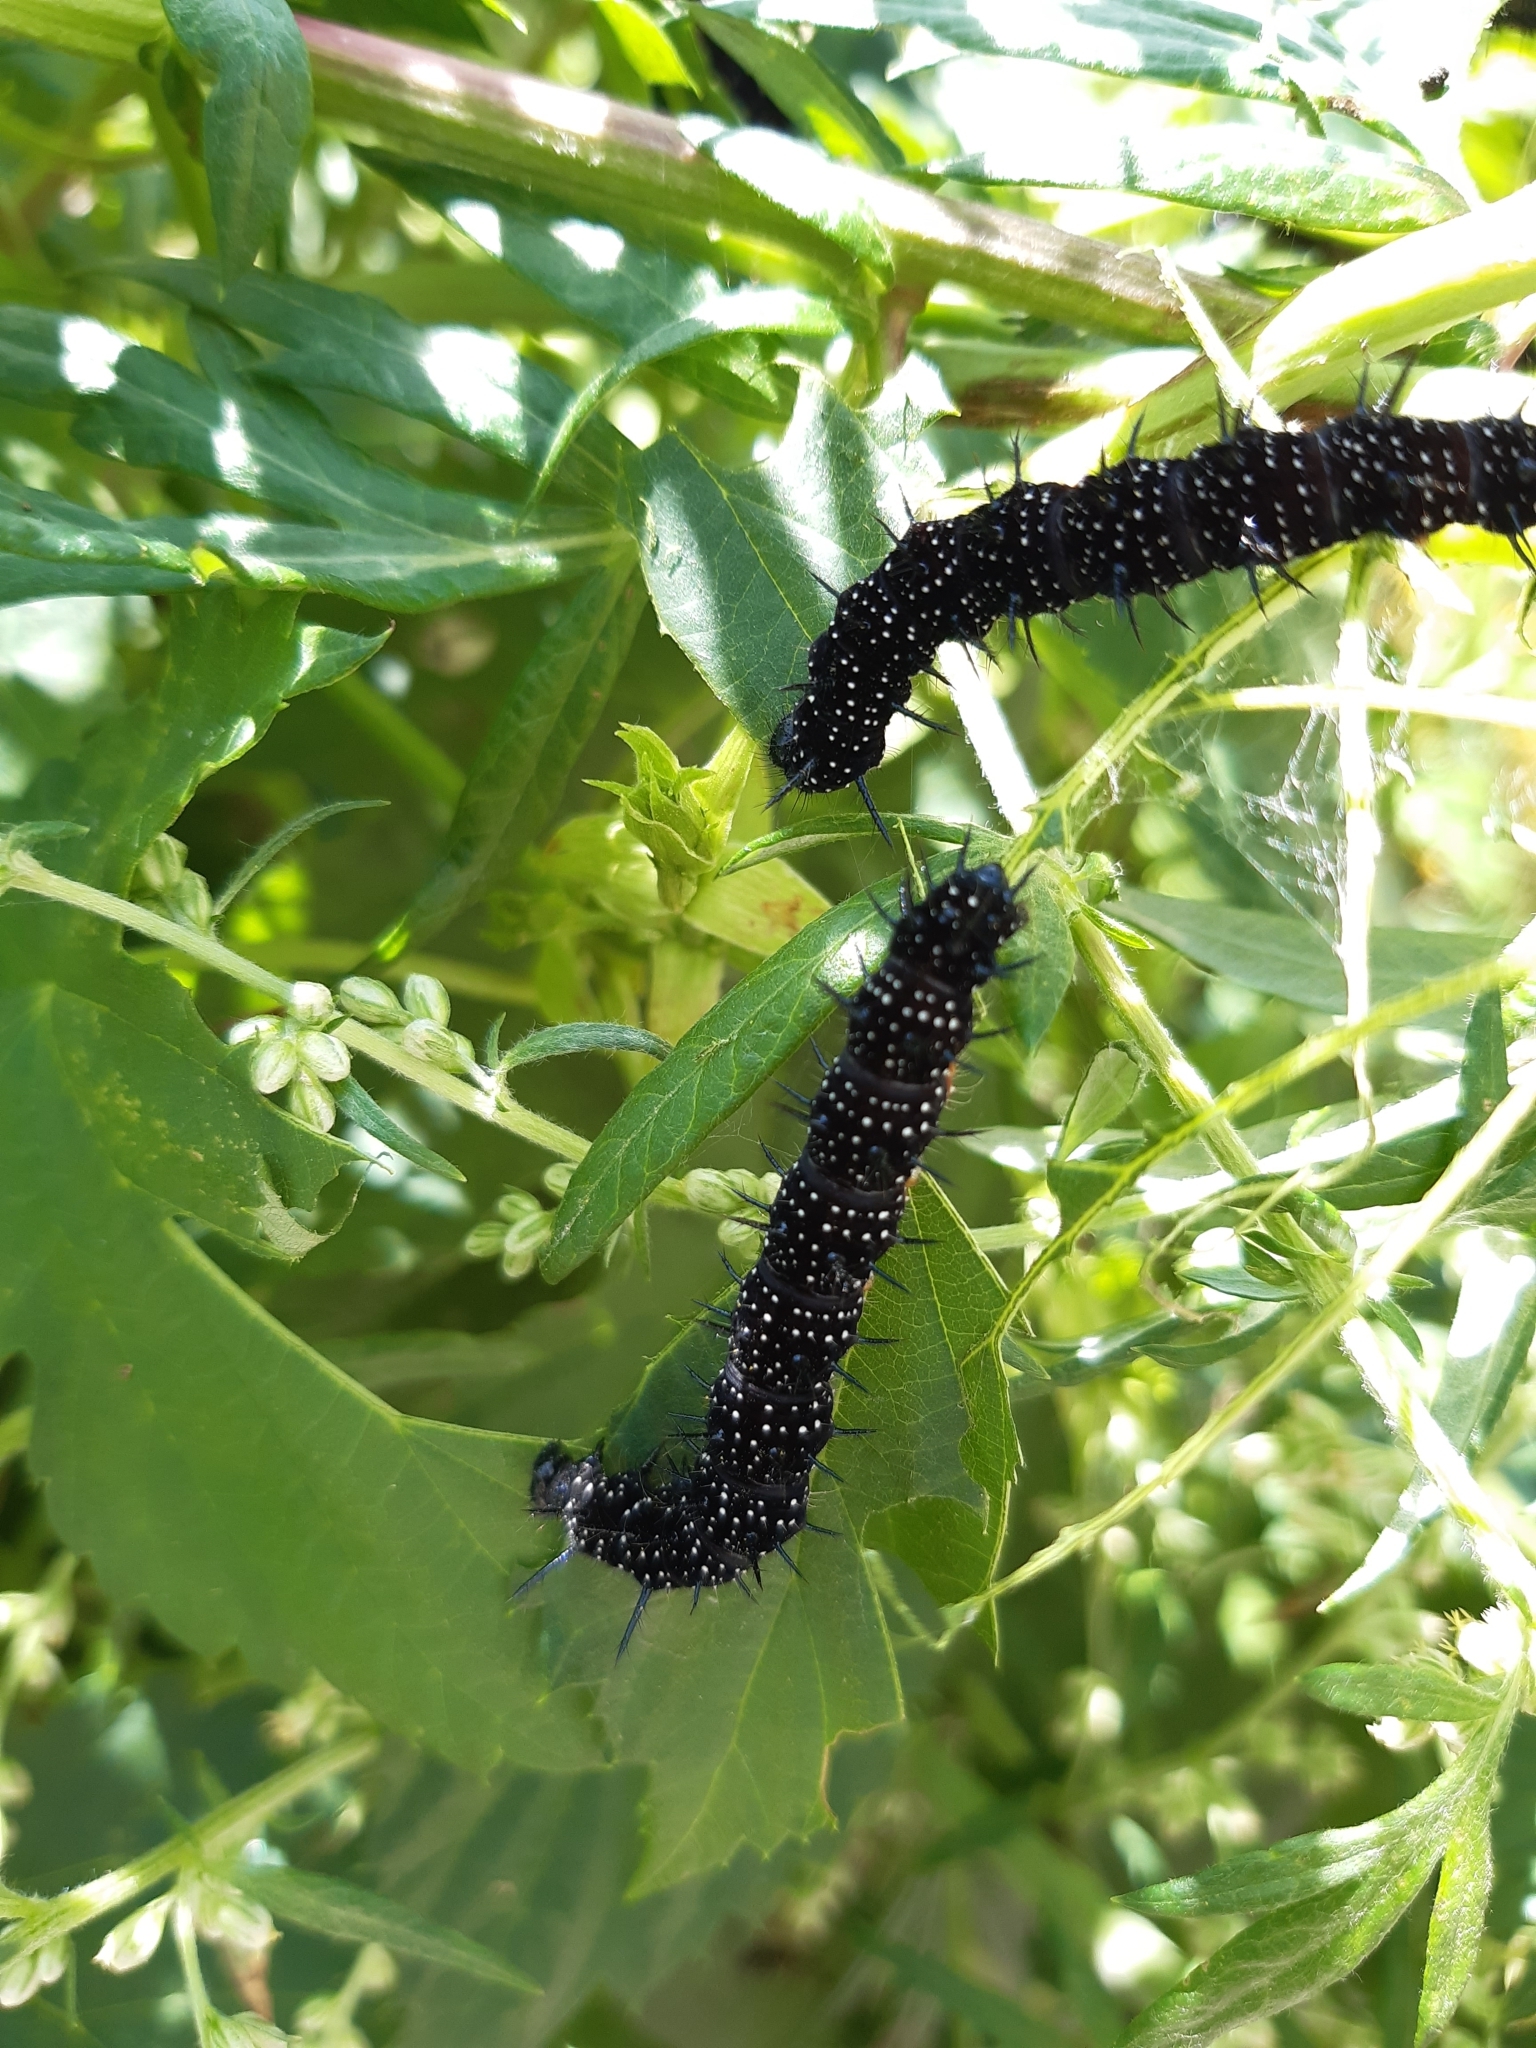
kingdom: Animalia
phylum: Arthropoda
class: Insecta
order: Lepidoptera
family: Nymphalidae
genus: Aglais
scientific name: Aglais io
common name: Peacock
